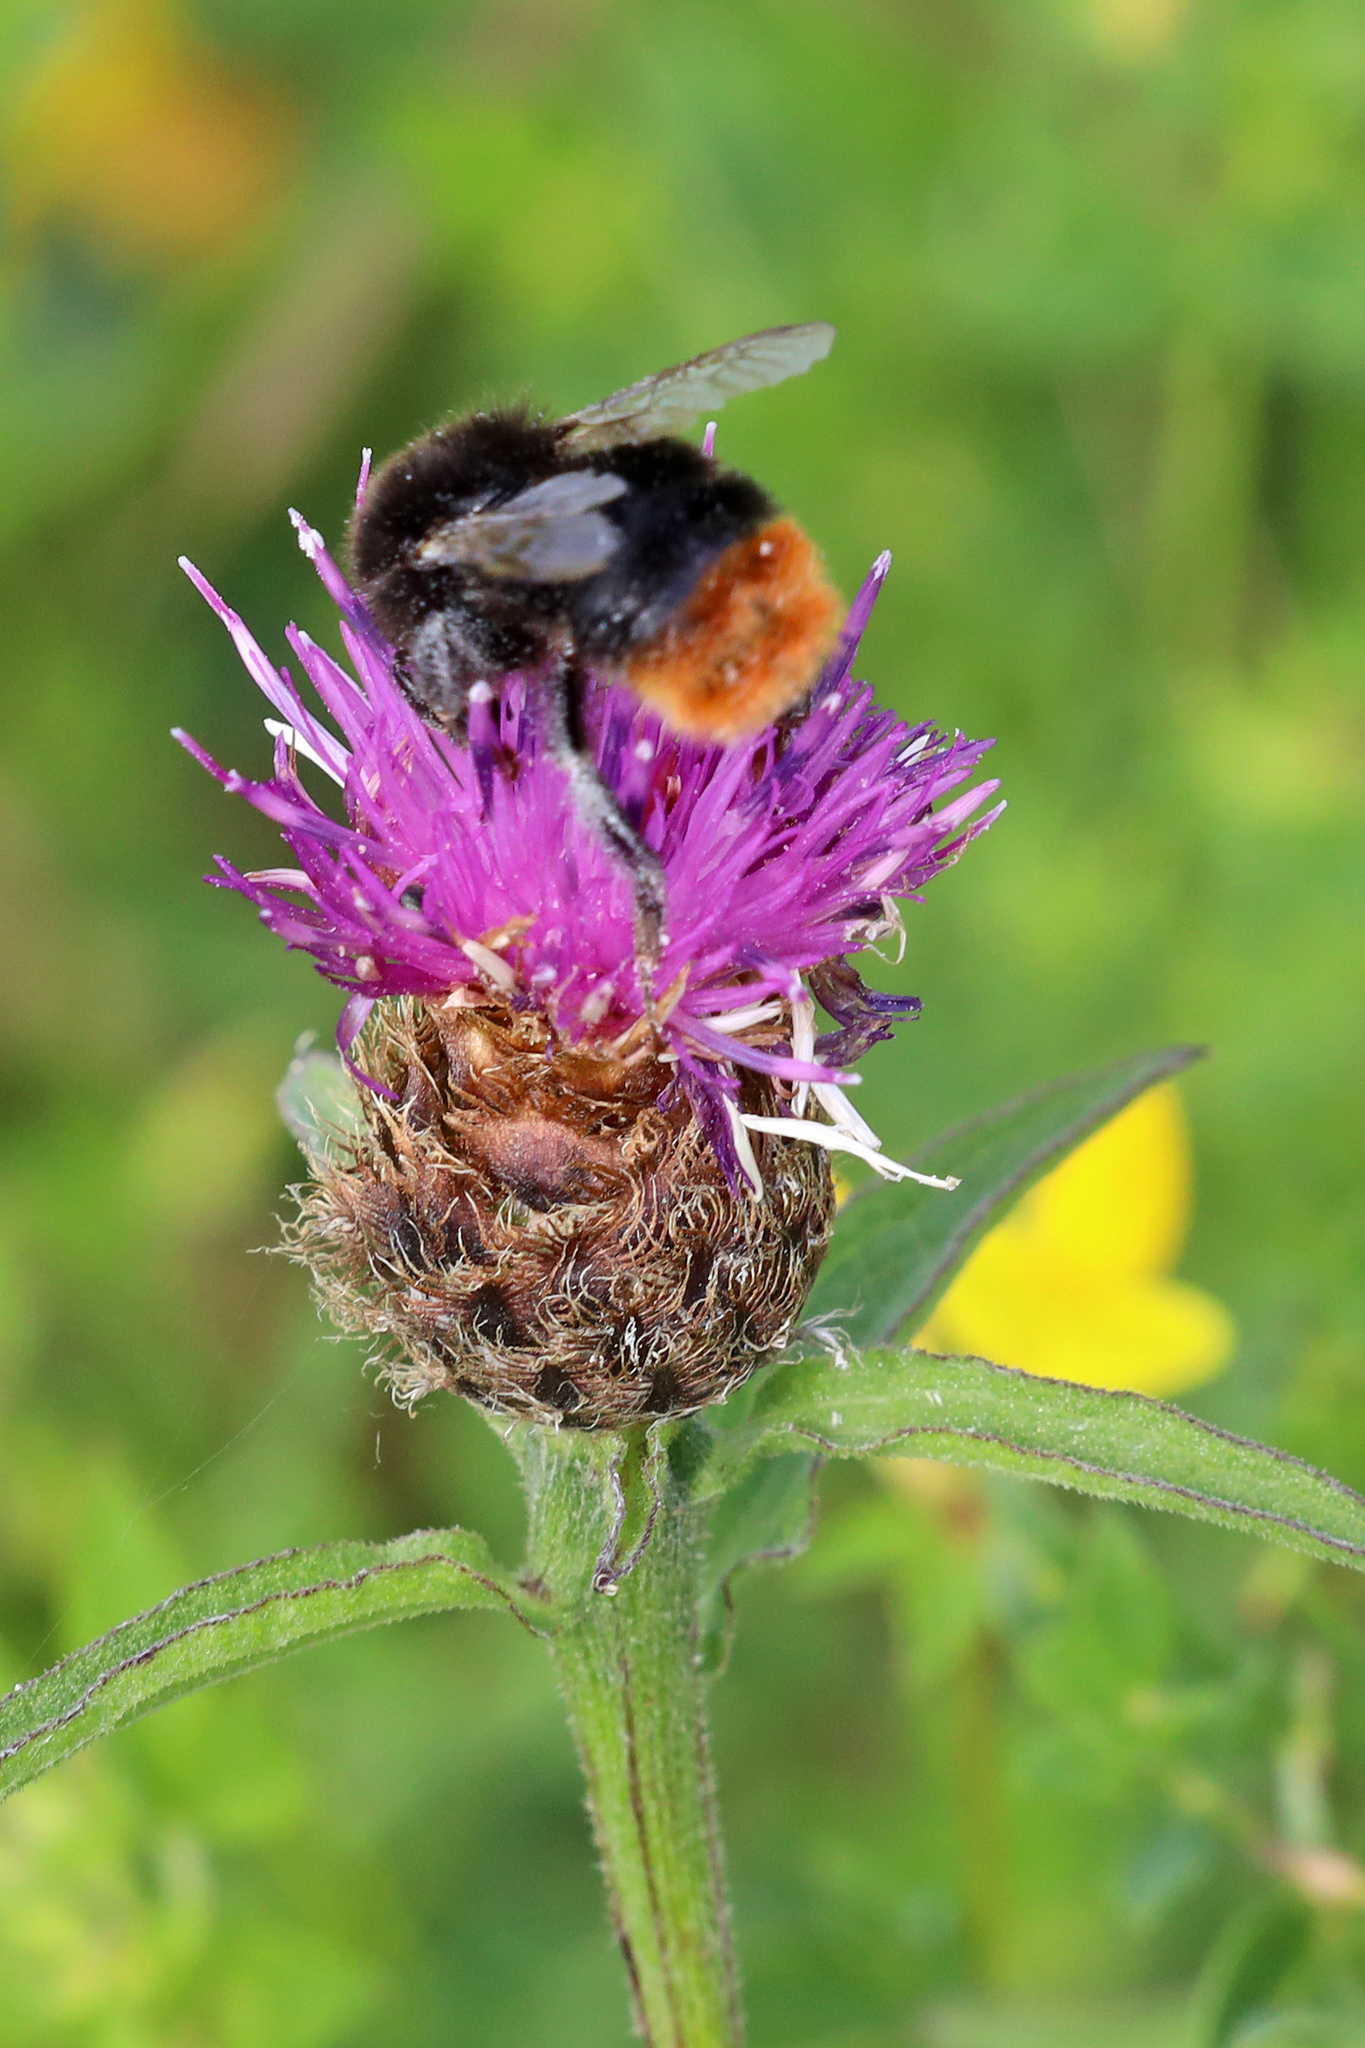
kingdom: Animalia
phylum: Arthropoda
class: Insecta
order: Hymenoptera
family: Apidae
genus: Bombus
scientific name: Bombus lapidarius
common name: Large red-tailed humble-bee
